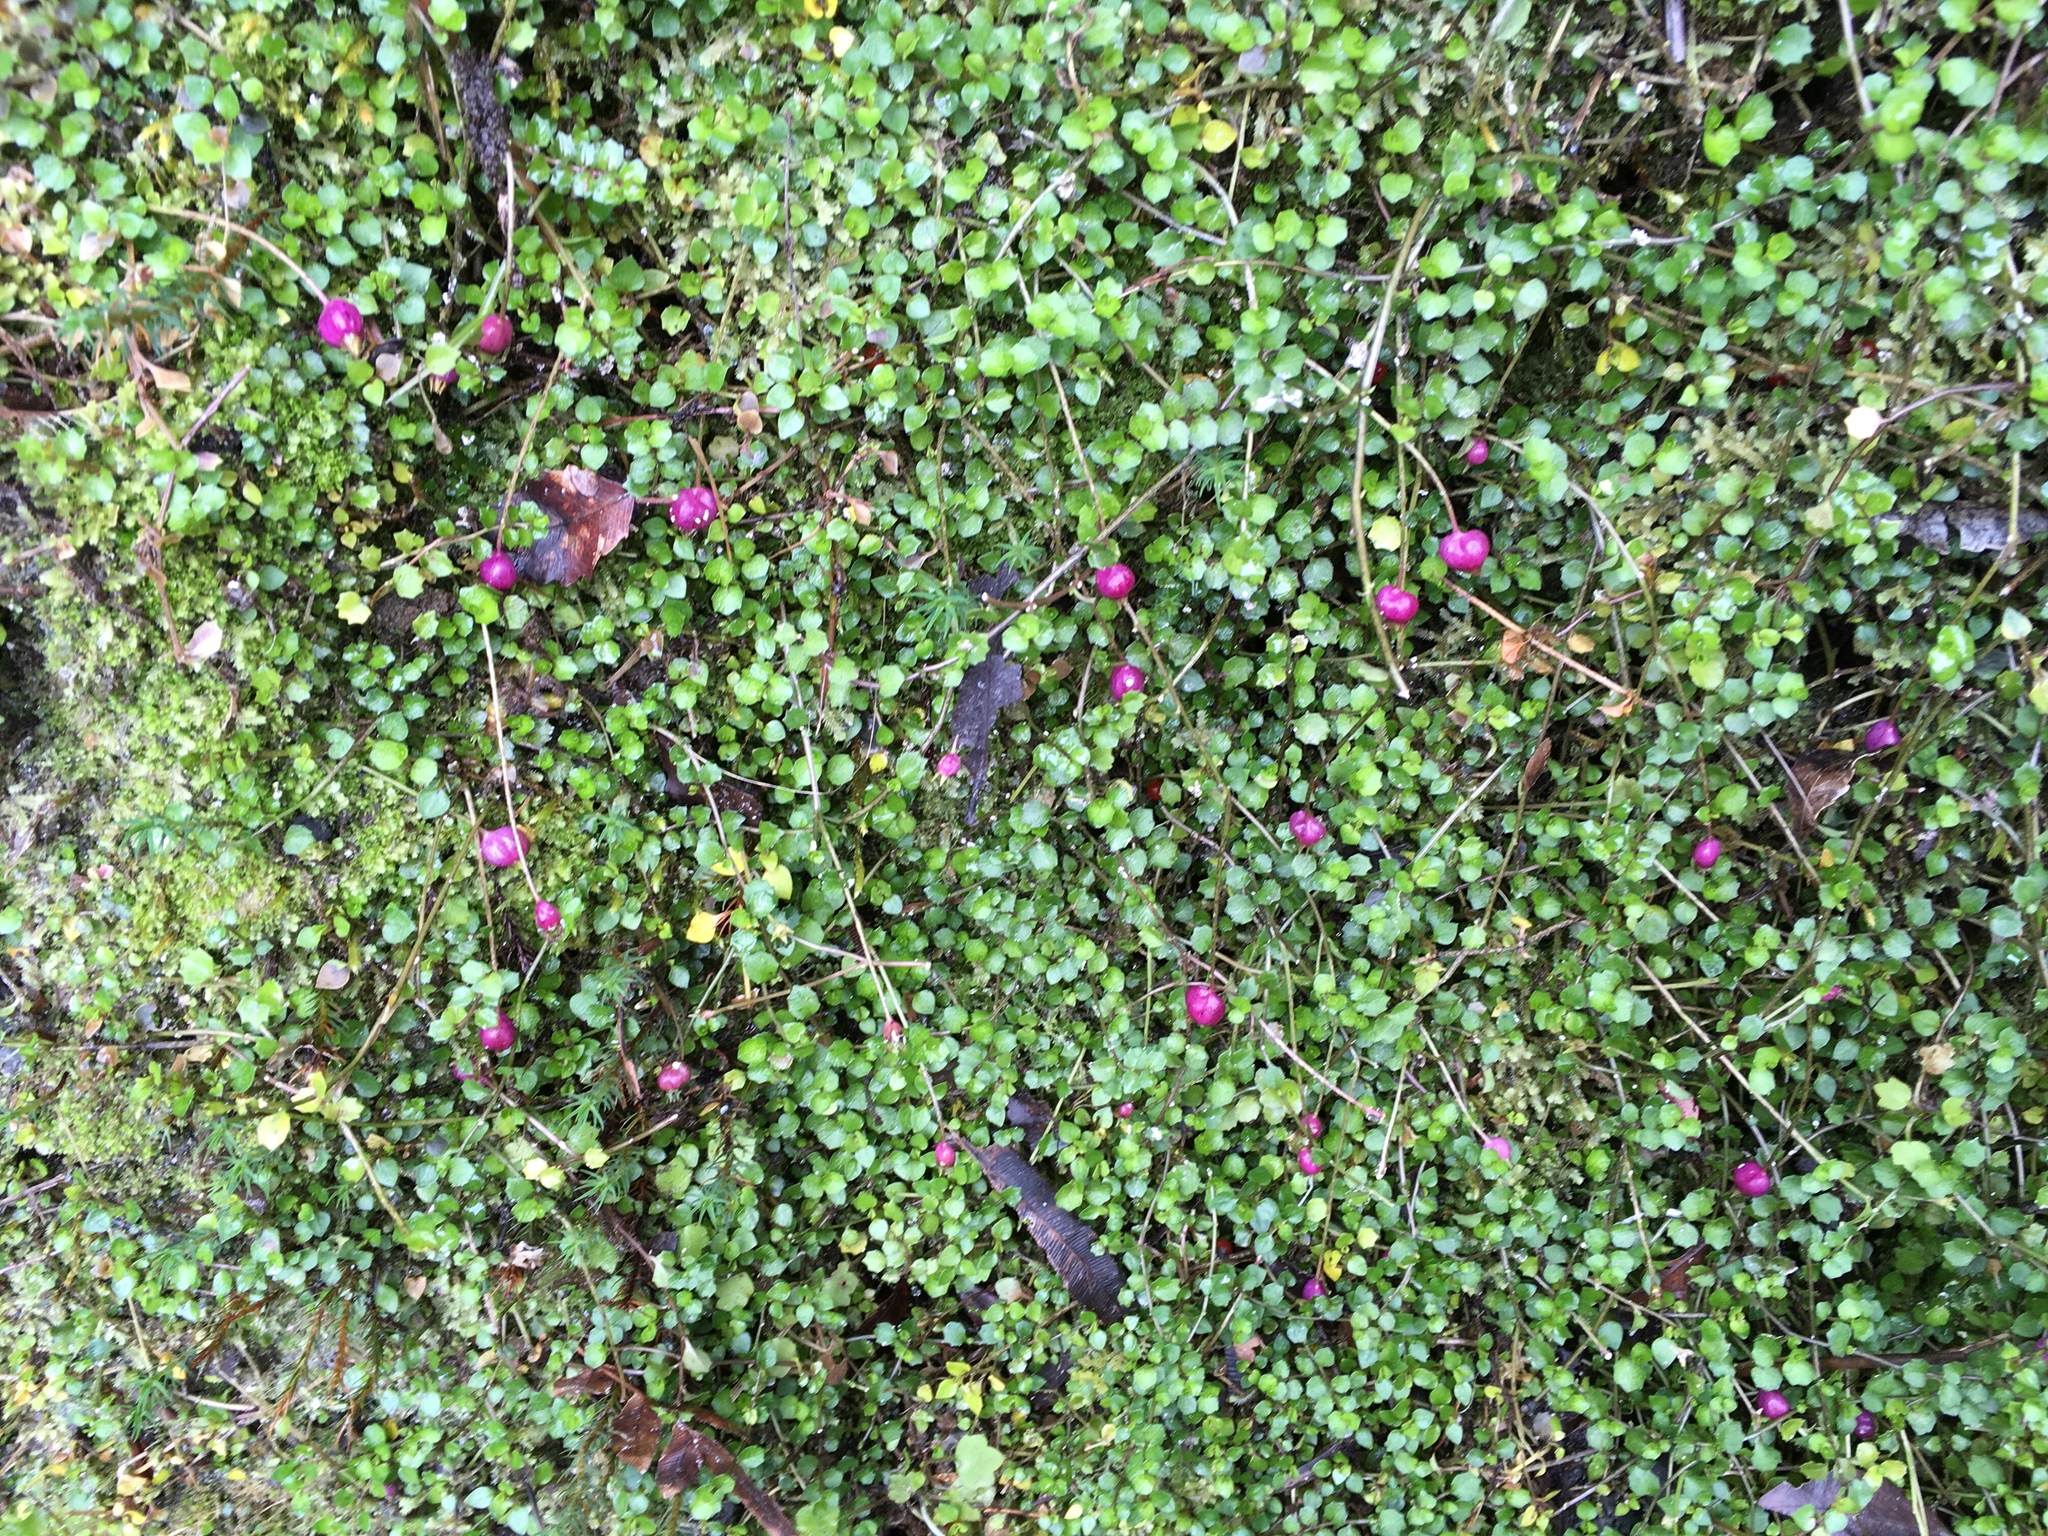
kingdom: Plantae
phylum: Tracheophyta
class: Magnoliopsida
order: Asterales
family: Campanulaceae
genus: Lobelia
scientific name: Lobelia angulata
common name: Lawn lobelia
